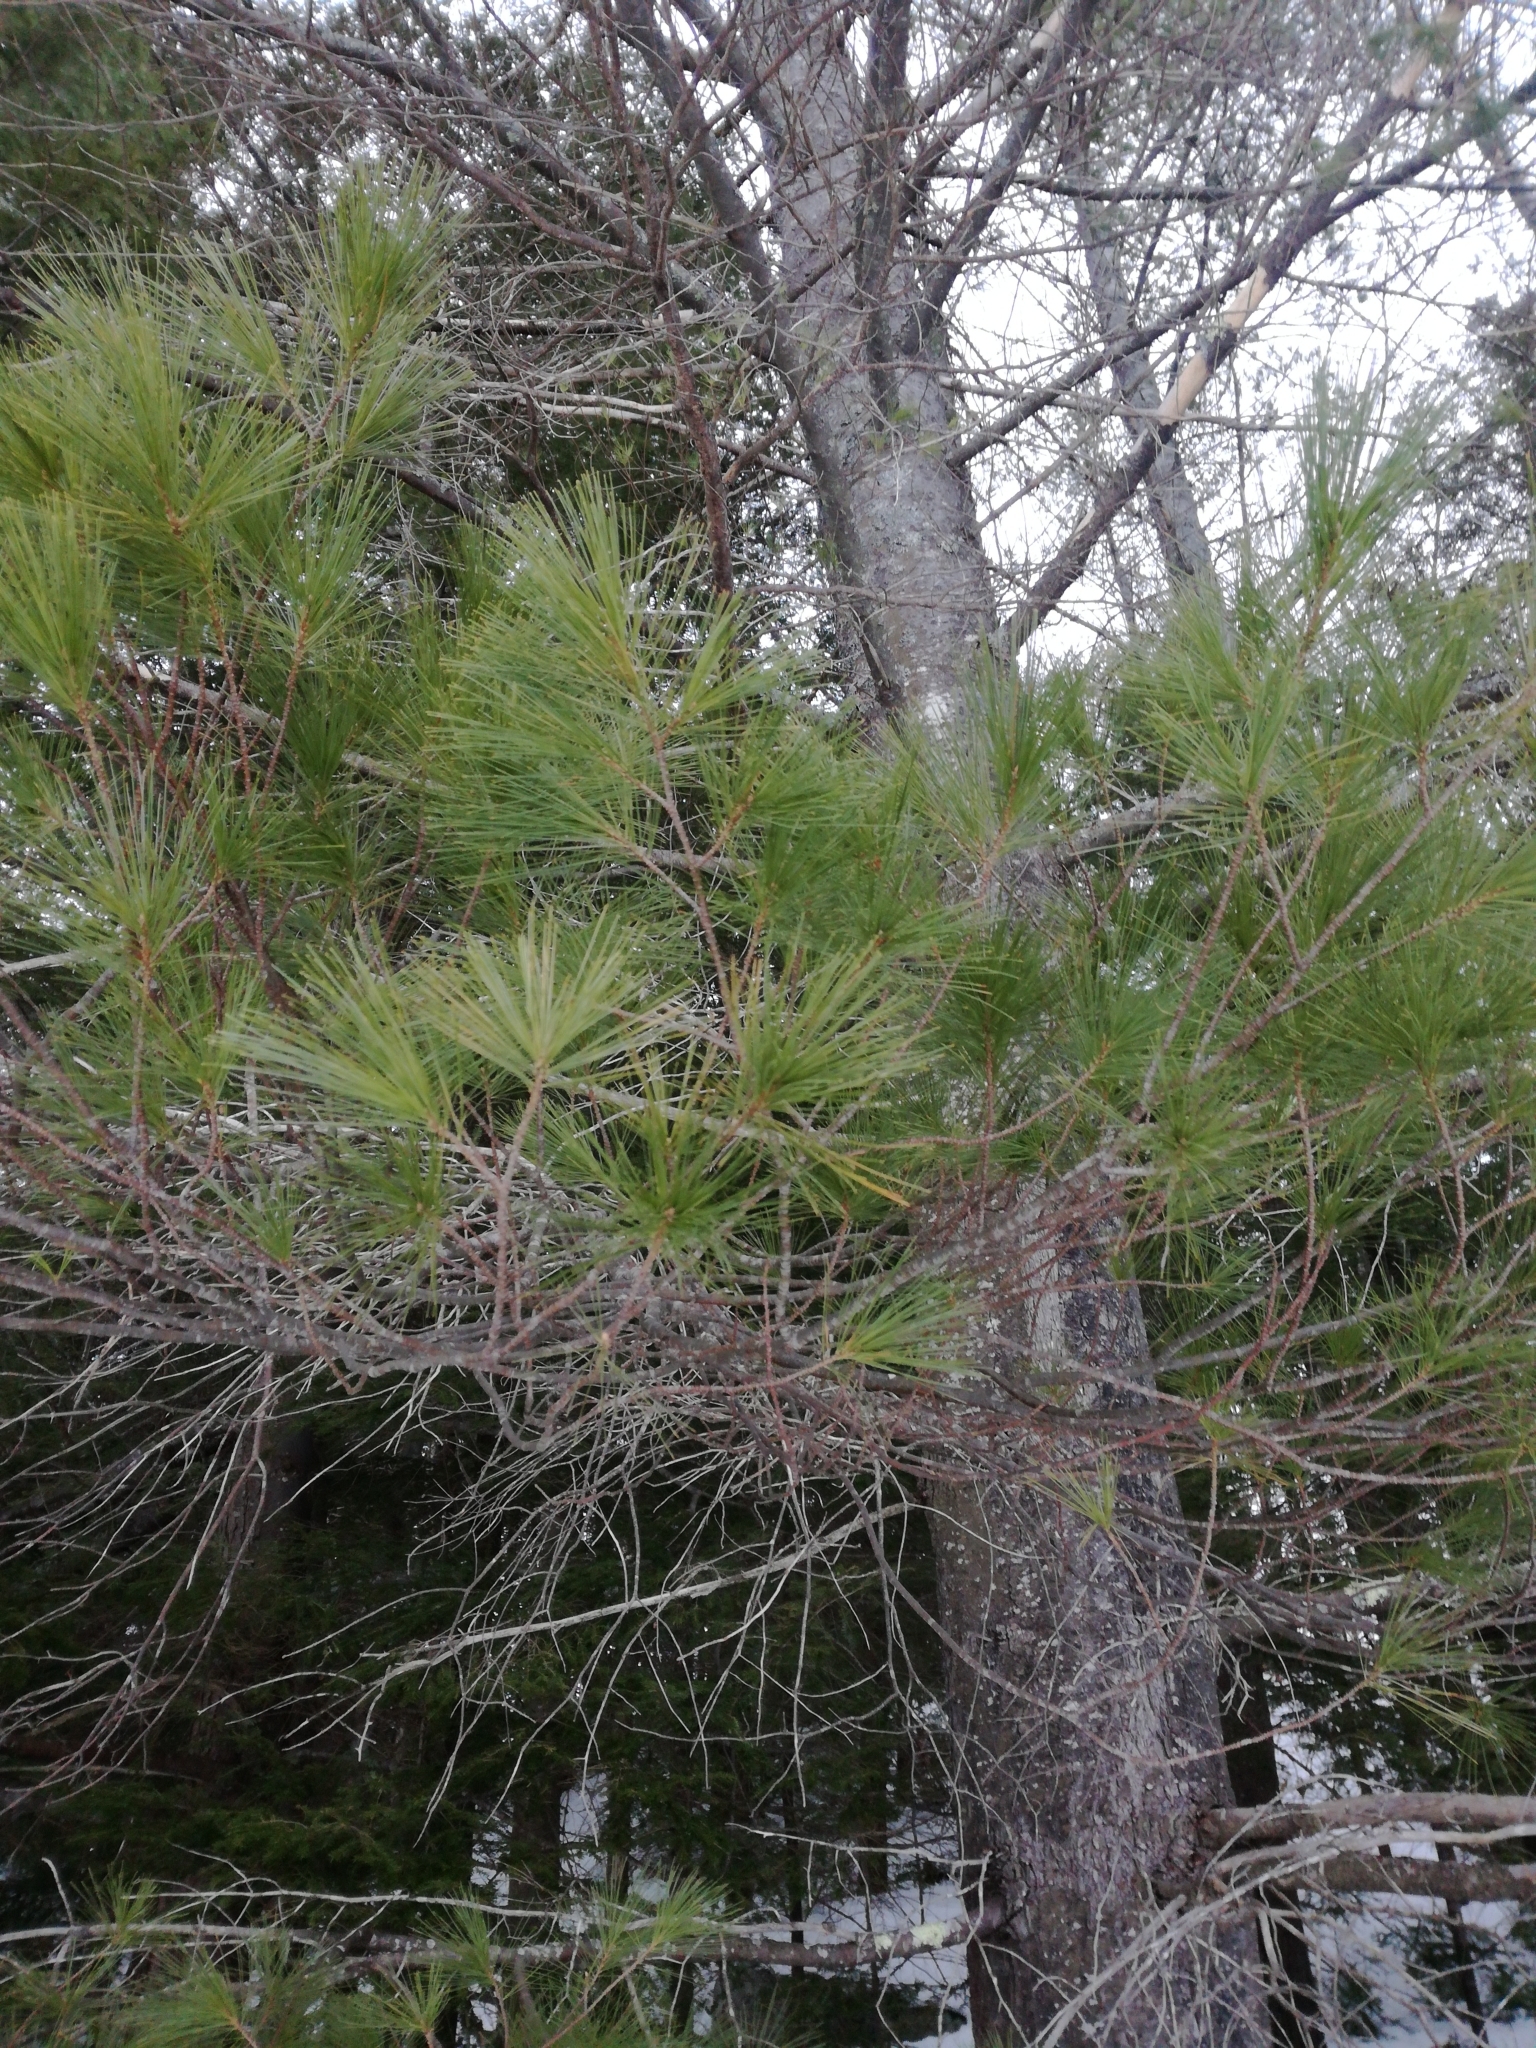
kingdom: Plantae
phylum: Tracheophyta
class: Pinopsida
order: Pinales
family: Pinaceae
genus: Pinus
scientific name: Pinus strobus
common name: Weymouth pine
